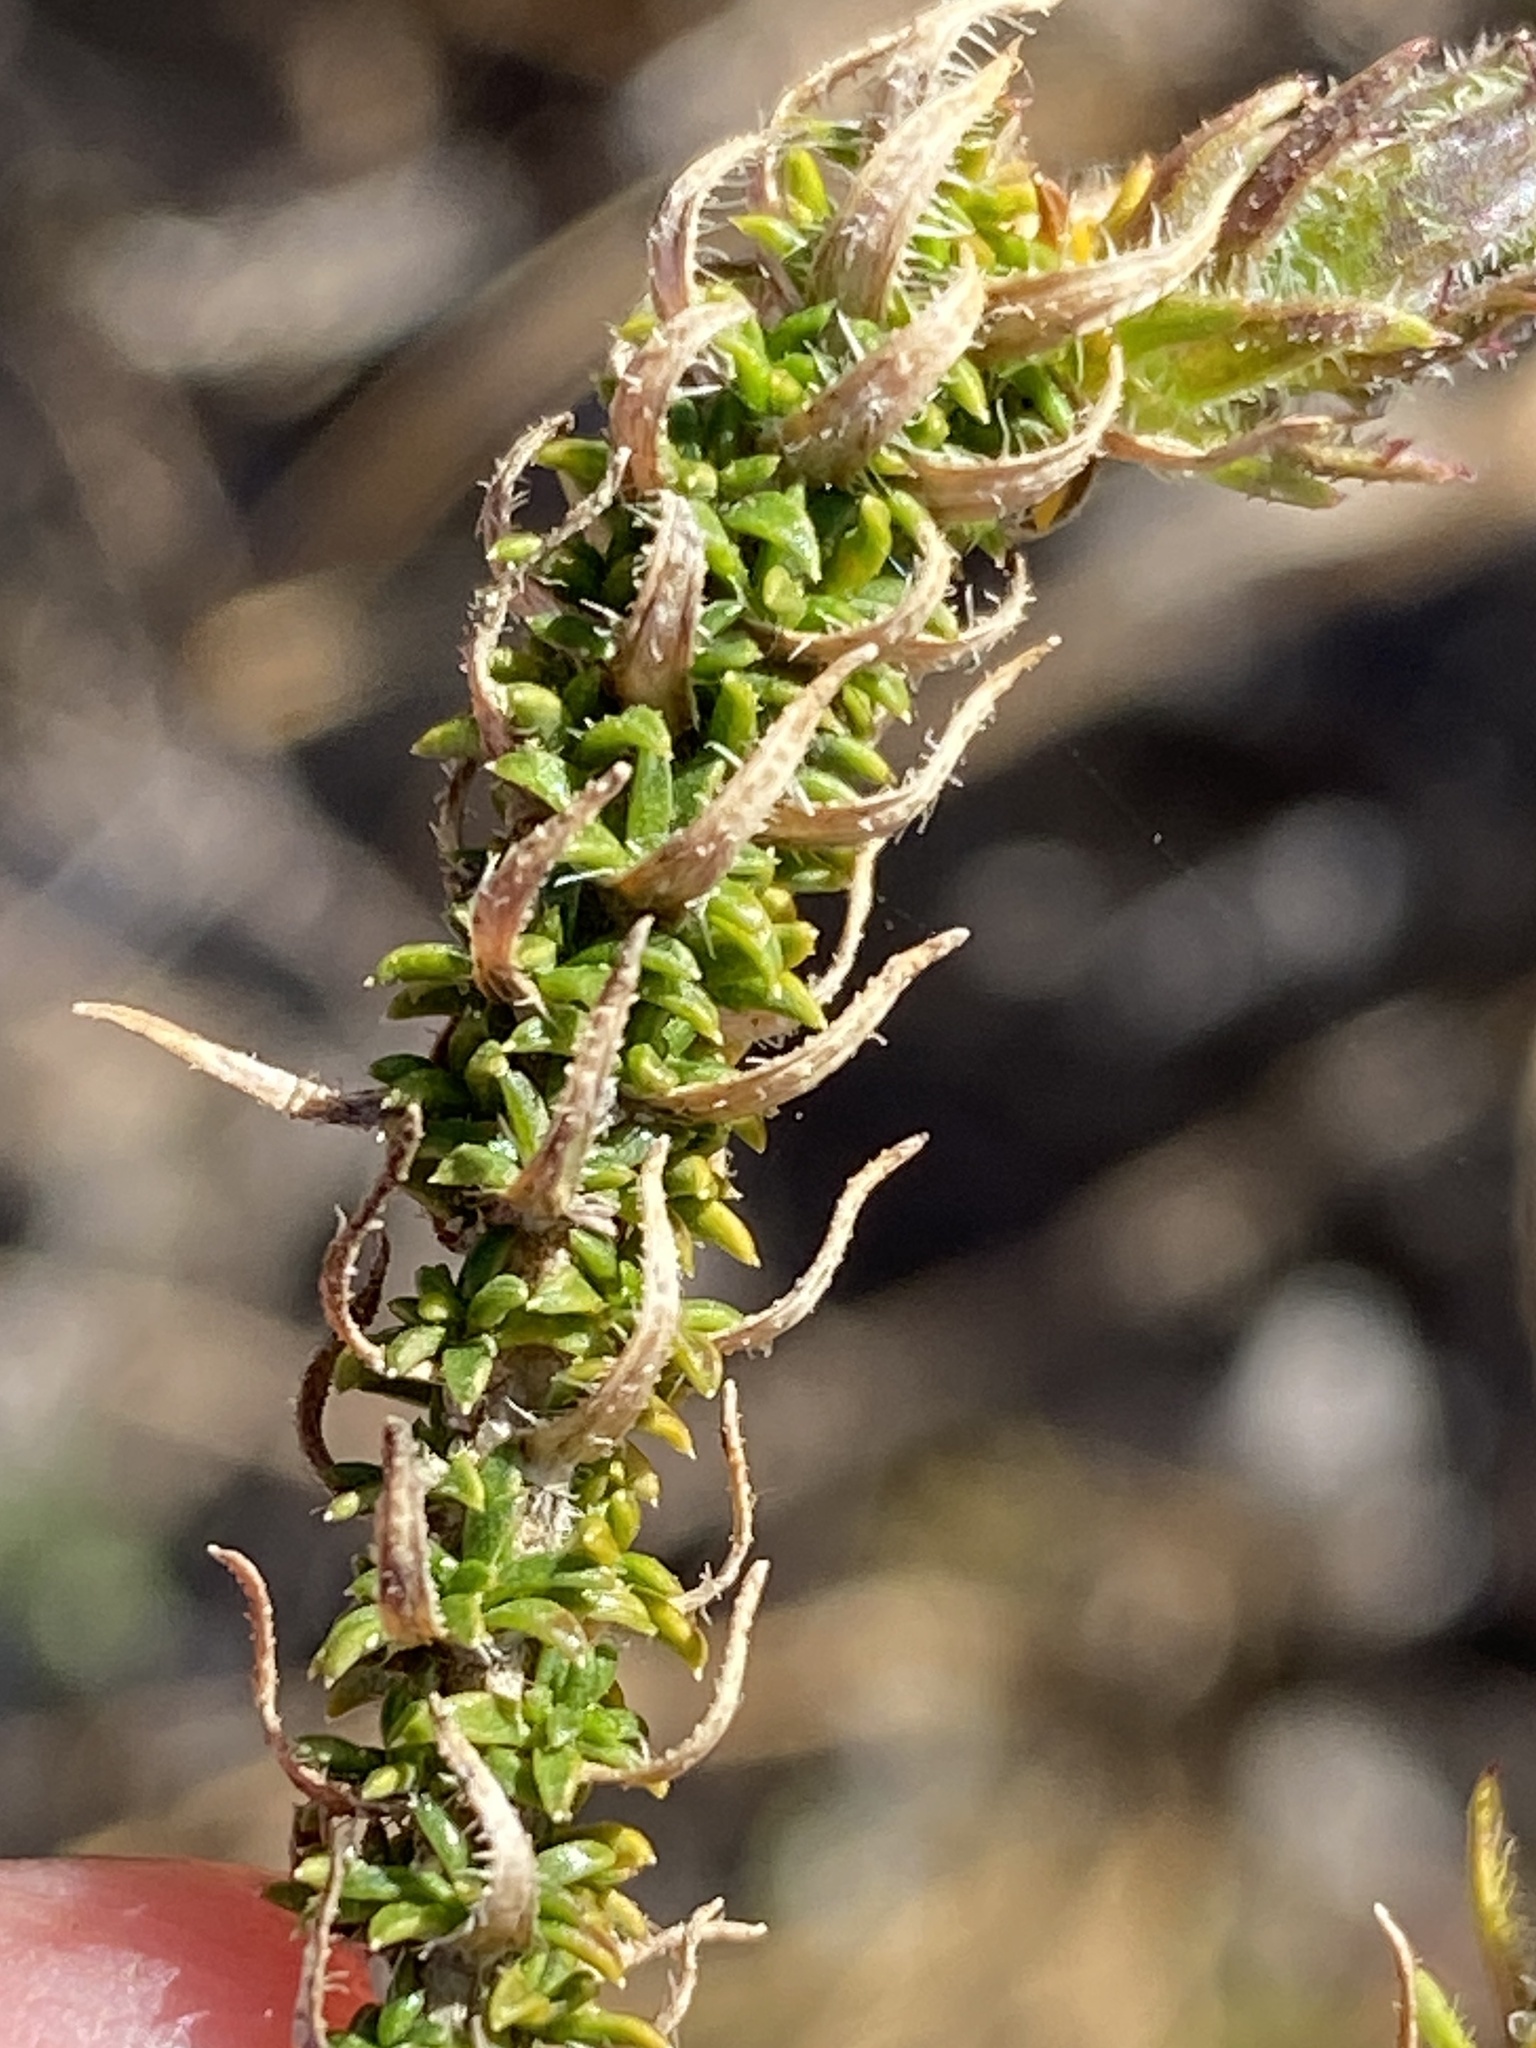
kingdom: Plantae
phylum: Tracheophyta
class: Magnoliopsida
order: Asterales
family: Campanulaceae
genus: Roella
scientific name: Roella ciliata
